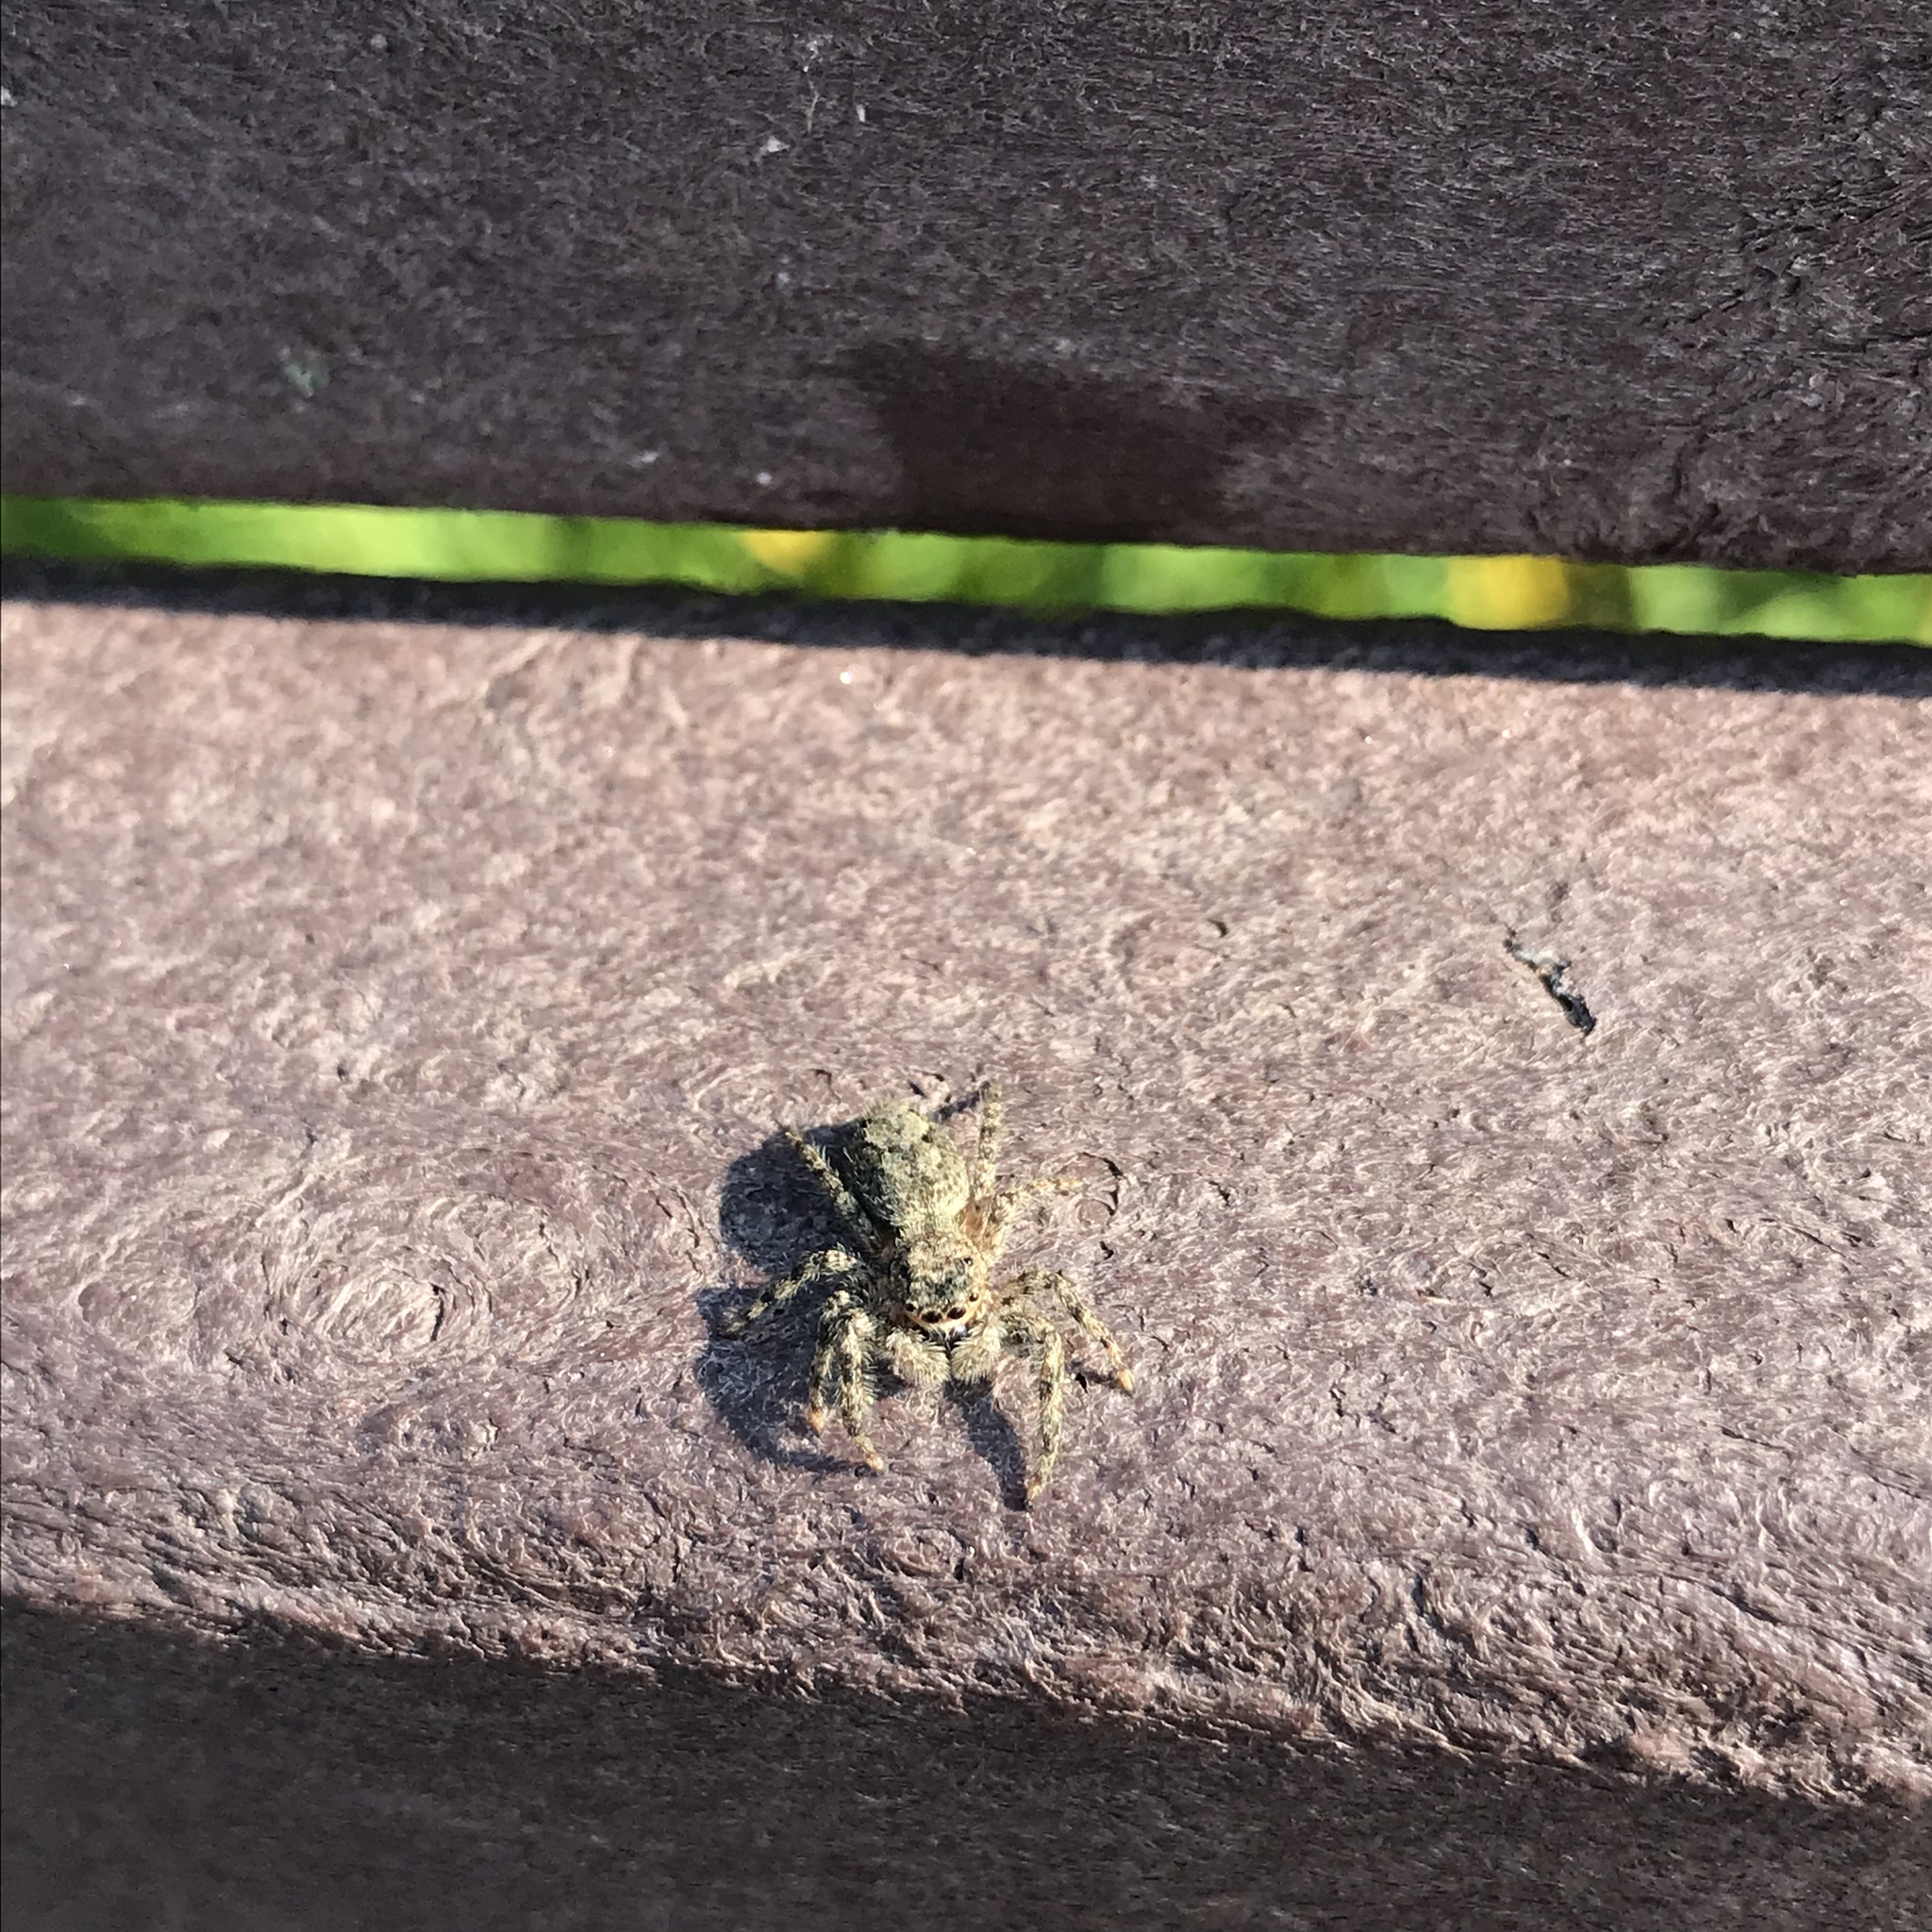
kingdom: Animalia
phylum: Arthropoda
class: Arachnida
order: Araneae
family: Salticidae
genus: Platycryptus
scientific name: Platycryptus undatus
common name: Tan jumping spider
